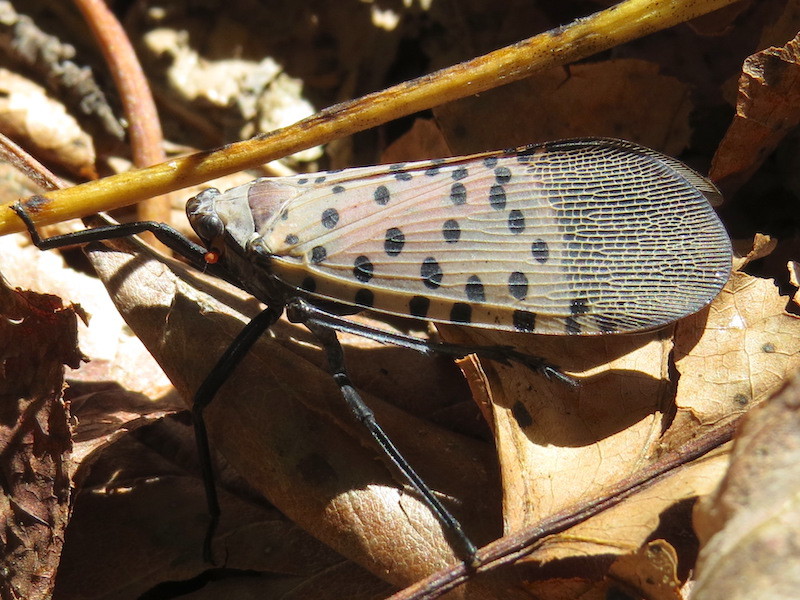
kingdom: Animalia
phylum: Arthropoda
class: Insecta
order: Hemiptera
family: Fulgoridae
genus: Lycorma
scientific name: Lycorma delicatula
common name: Spotted lanternfly
